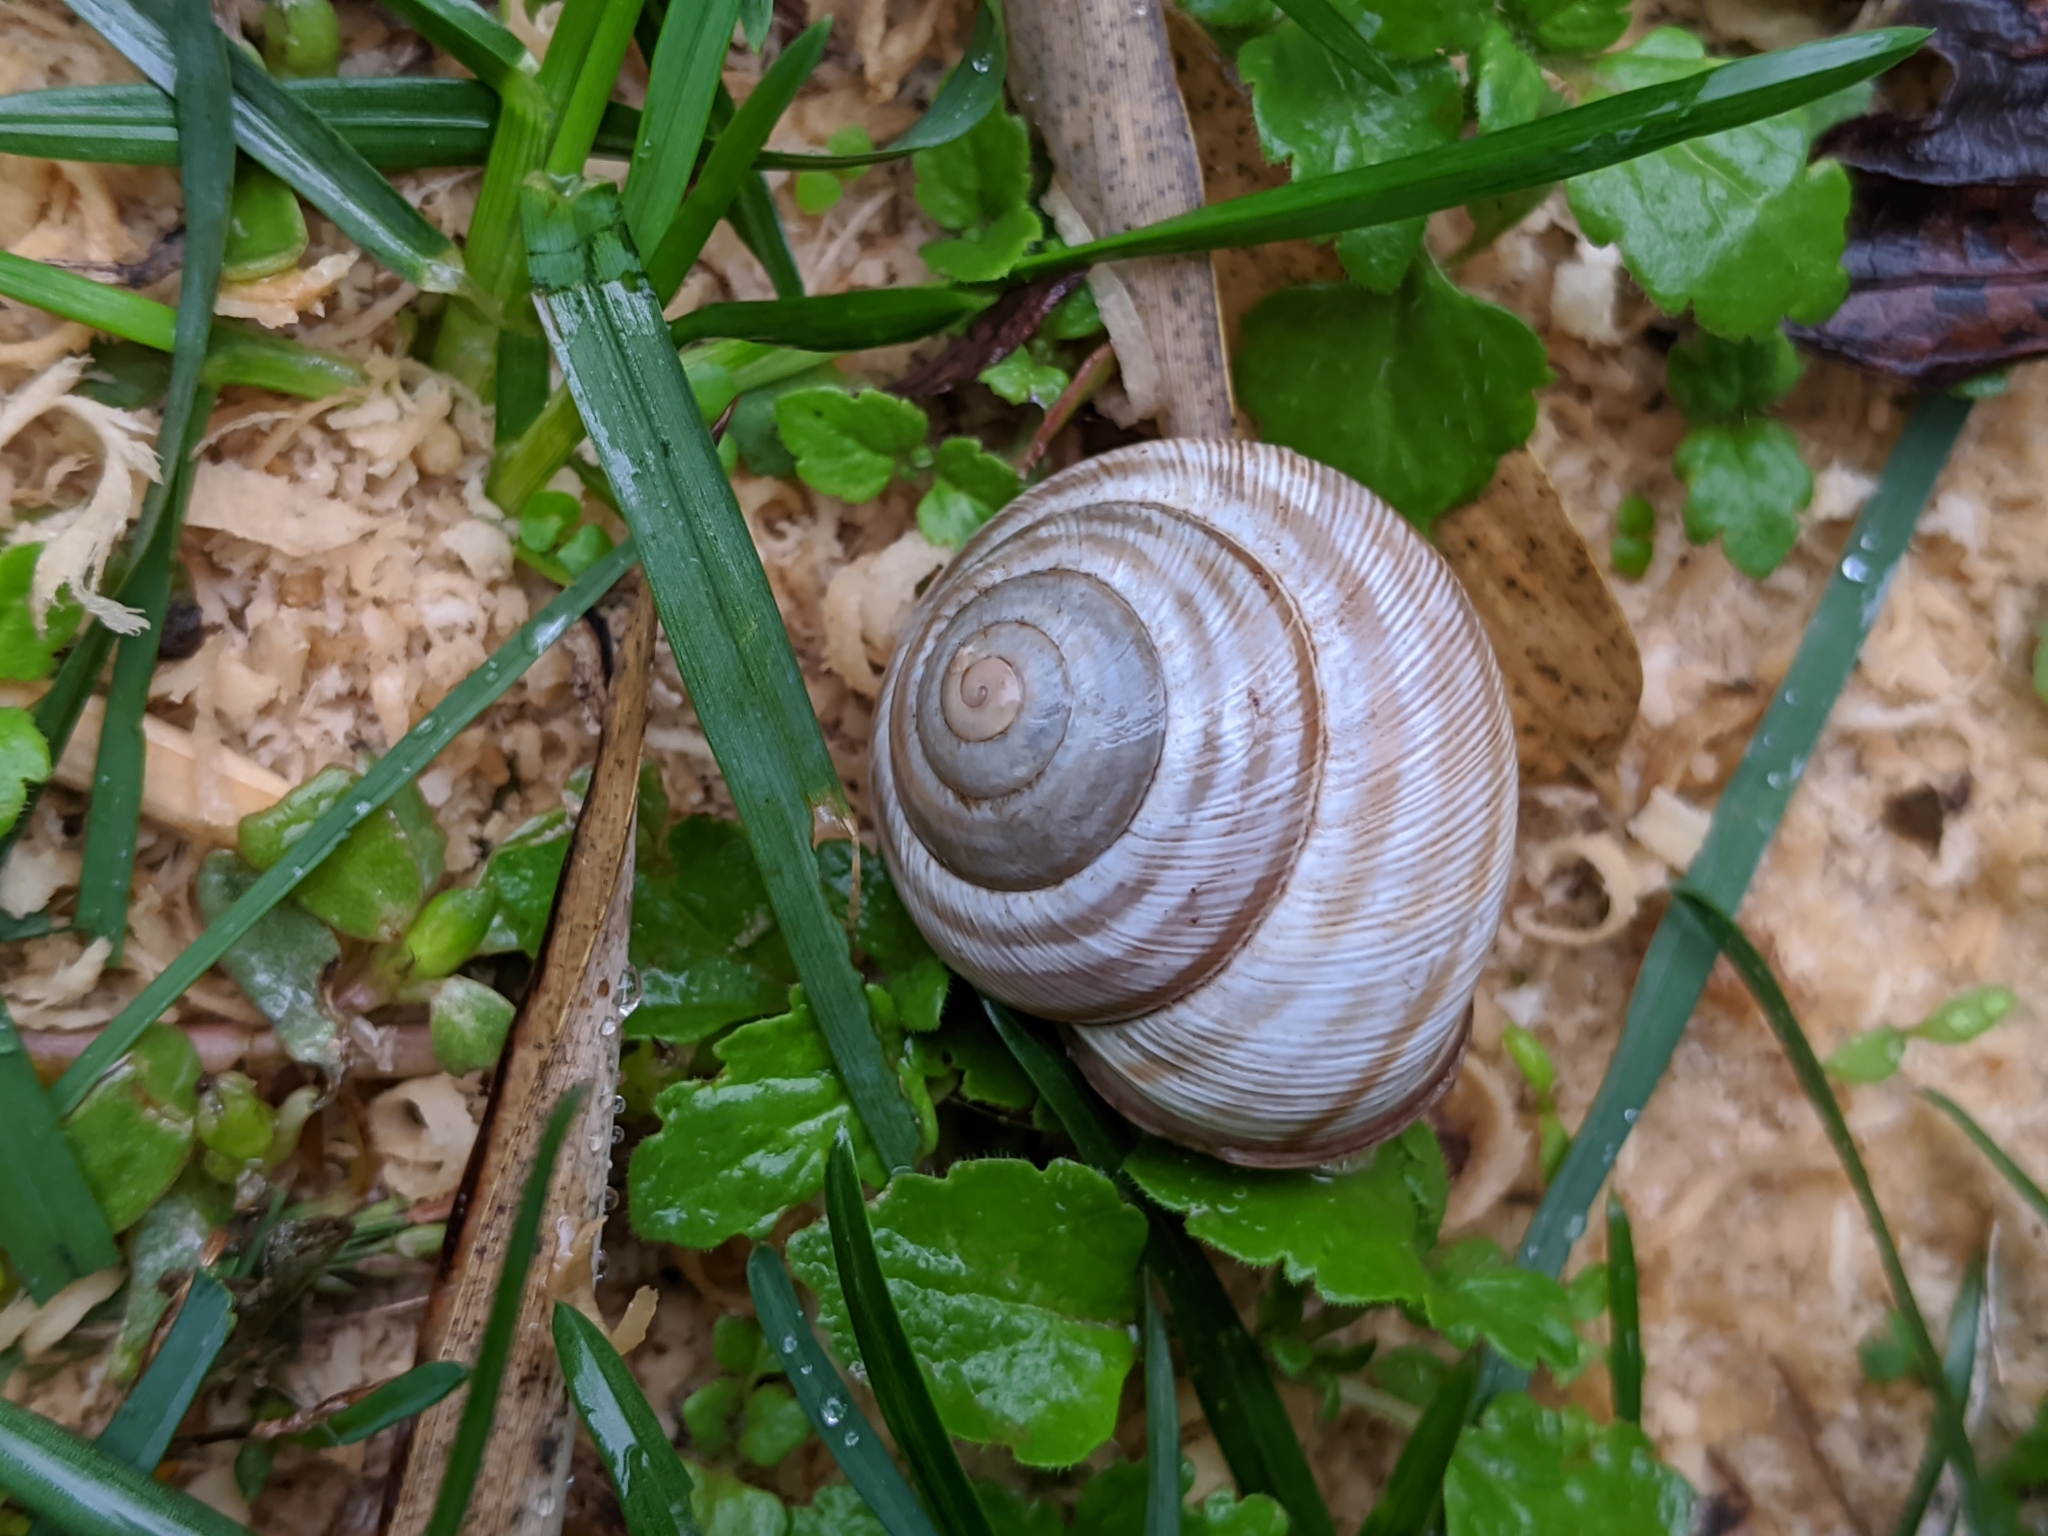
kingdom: Animalia
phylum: Mollusca
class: Gastropoda
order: Stylommatophora
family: Helicidae
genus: Caucasotachea
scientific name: Caucasotachea vindobonensis
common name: European helicid land snail
